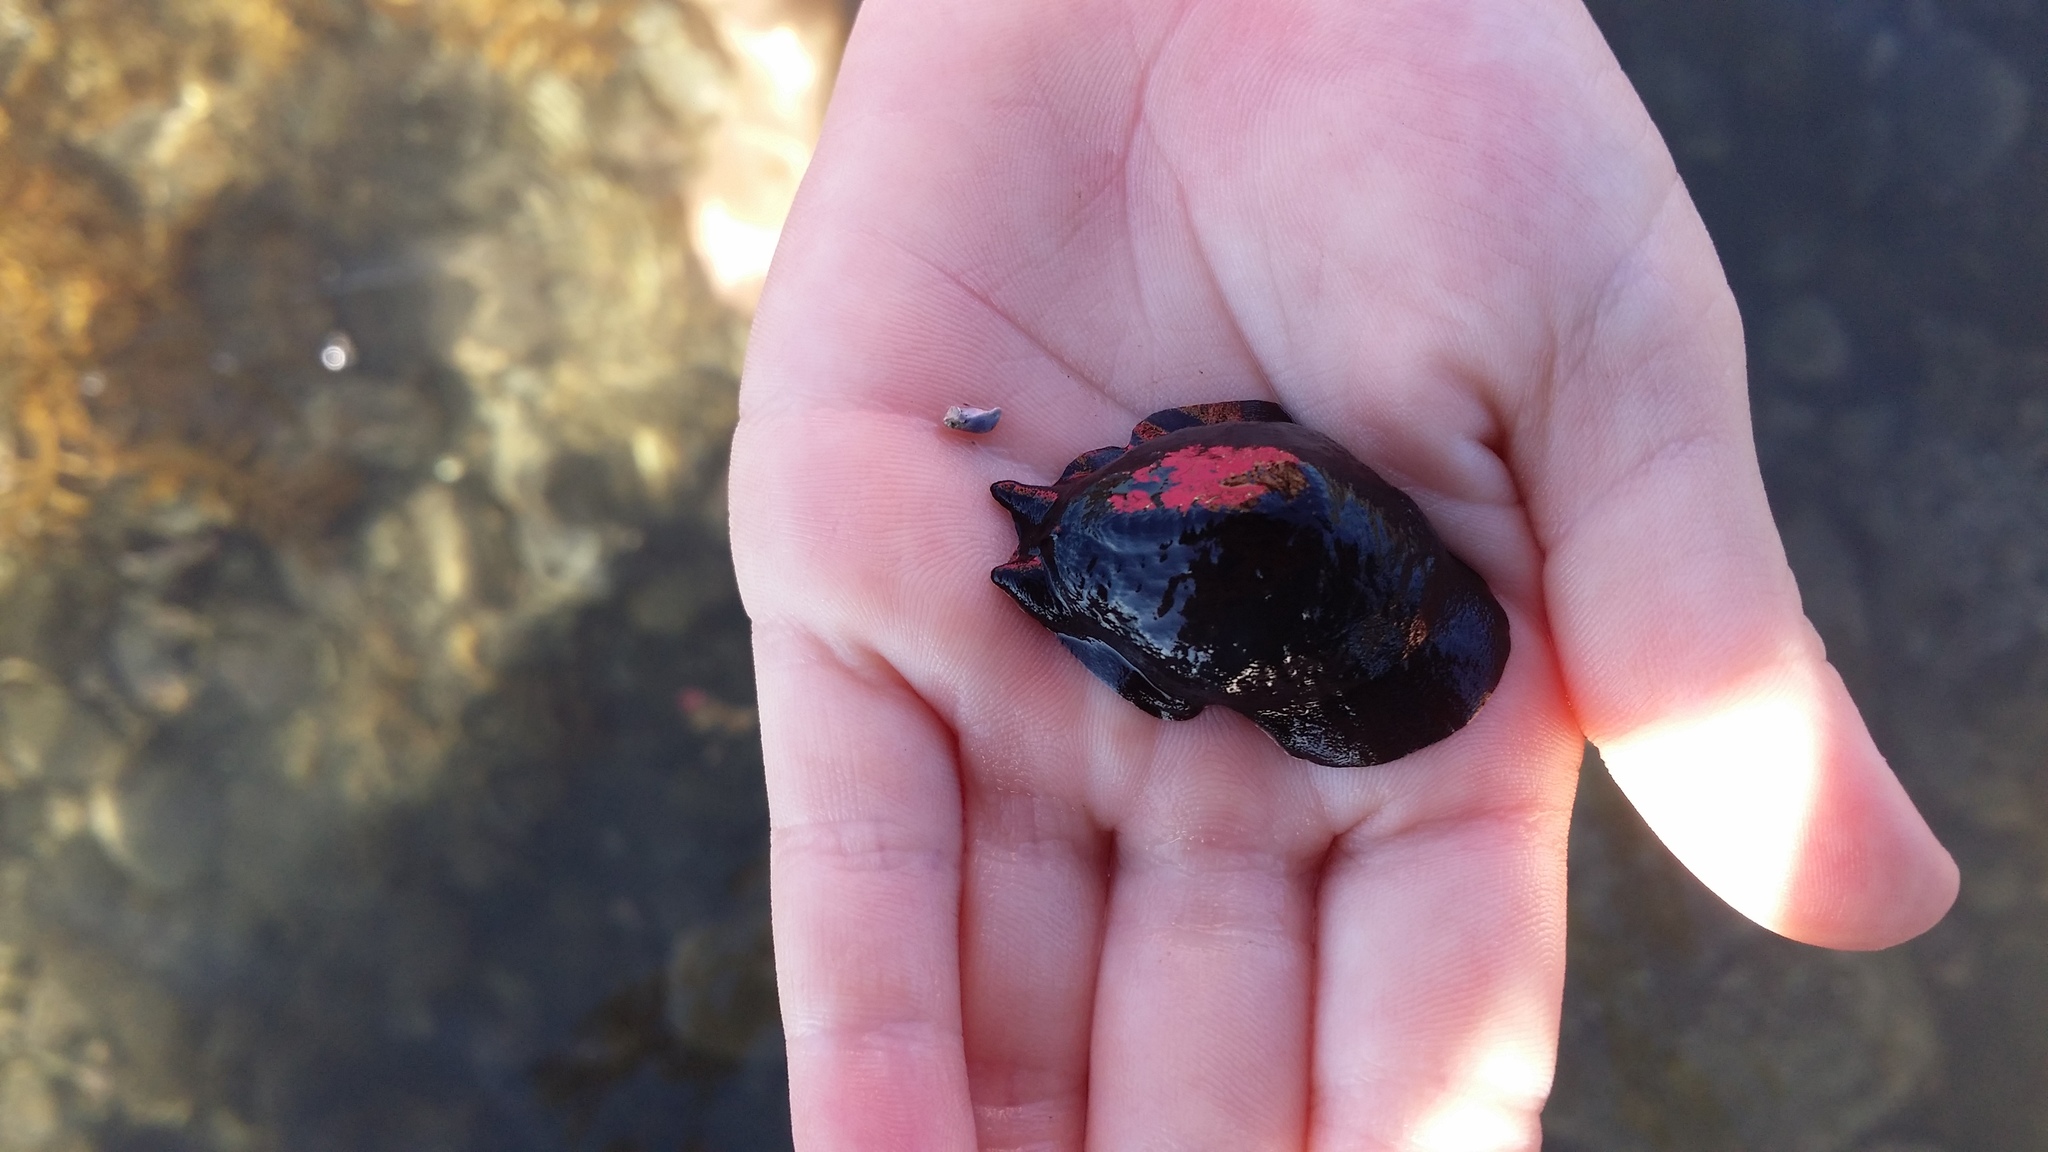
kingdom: Animalia
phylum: Mollusca
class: Gastropoda
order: Lepetellida
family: Fissurellidae
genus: Scutus
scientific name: Scutus breviculus
